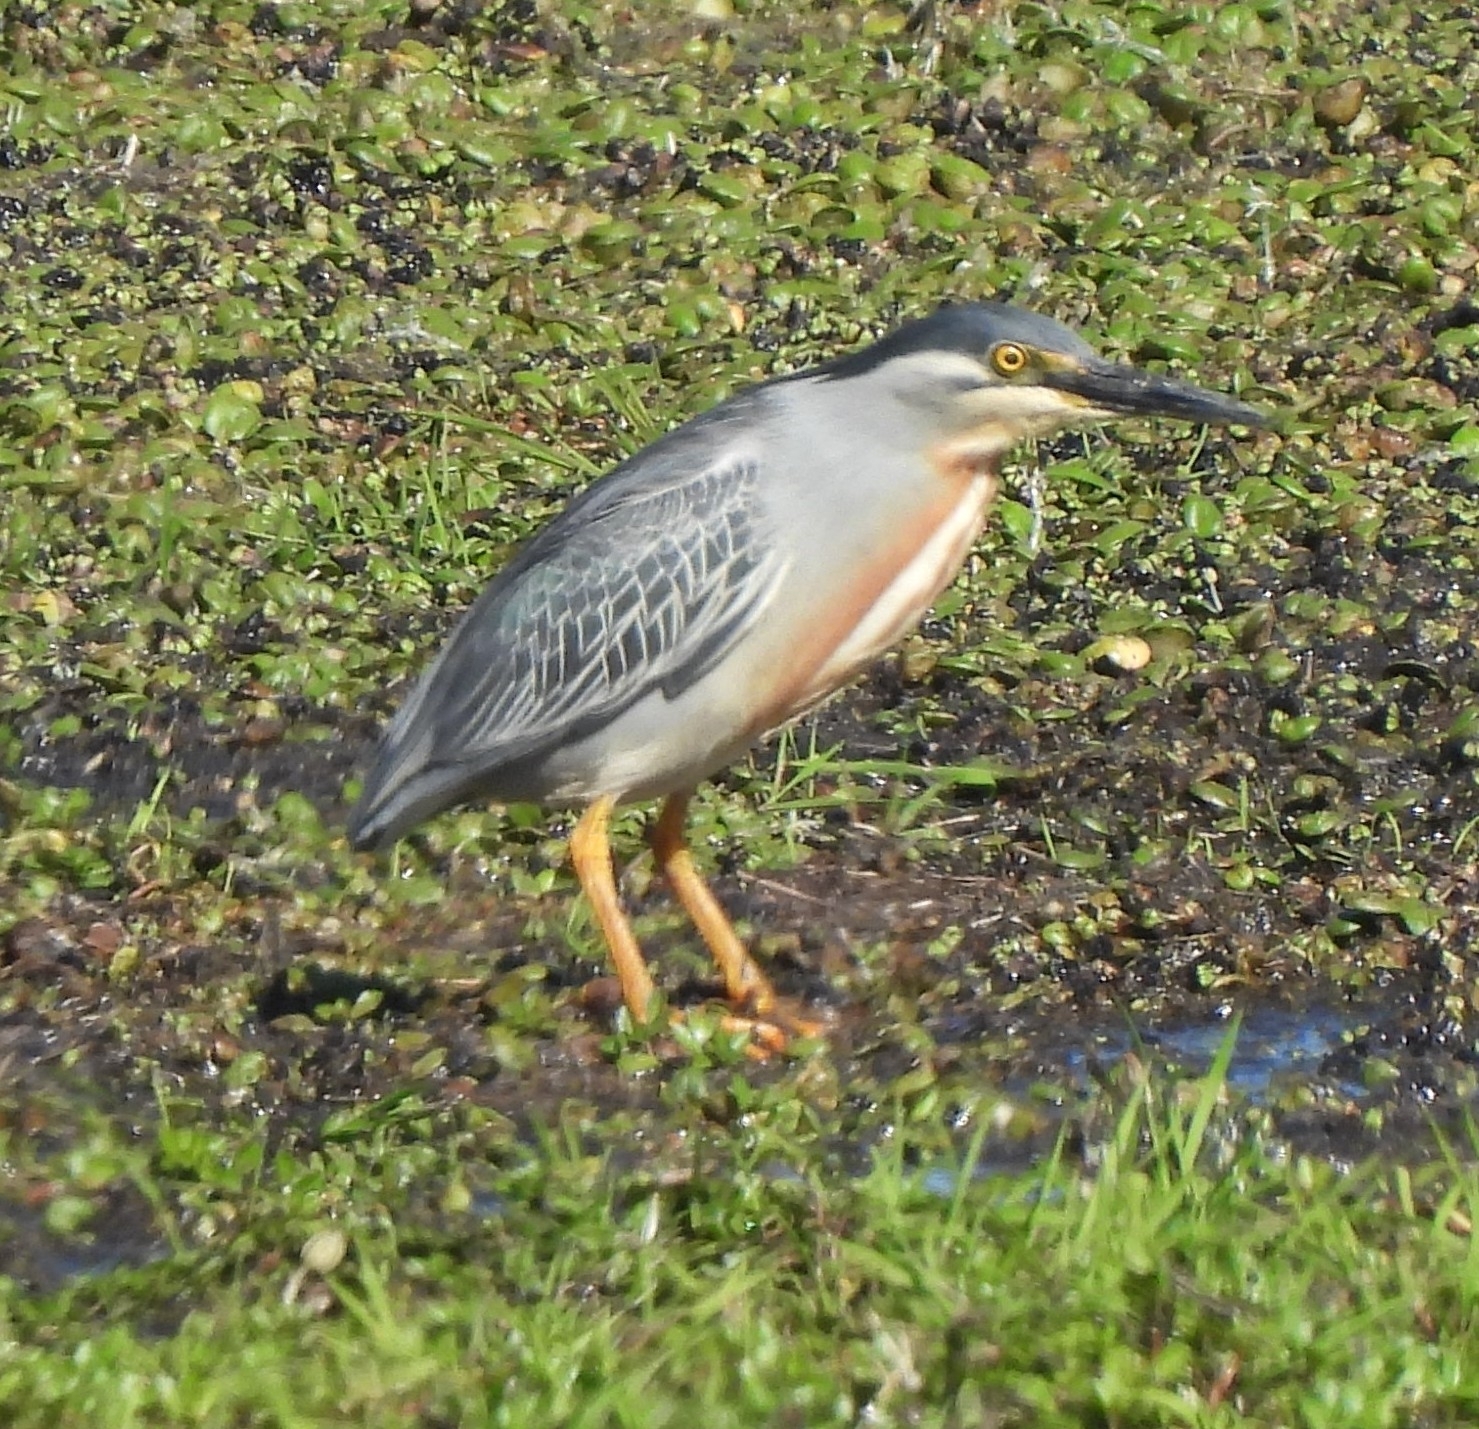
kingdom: Animalia
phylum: Chordata
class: Aves
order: Pelecaniformes
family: Ardeidae
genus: Butorides
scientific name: Butorides striata
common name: Striated heron
